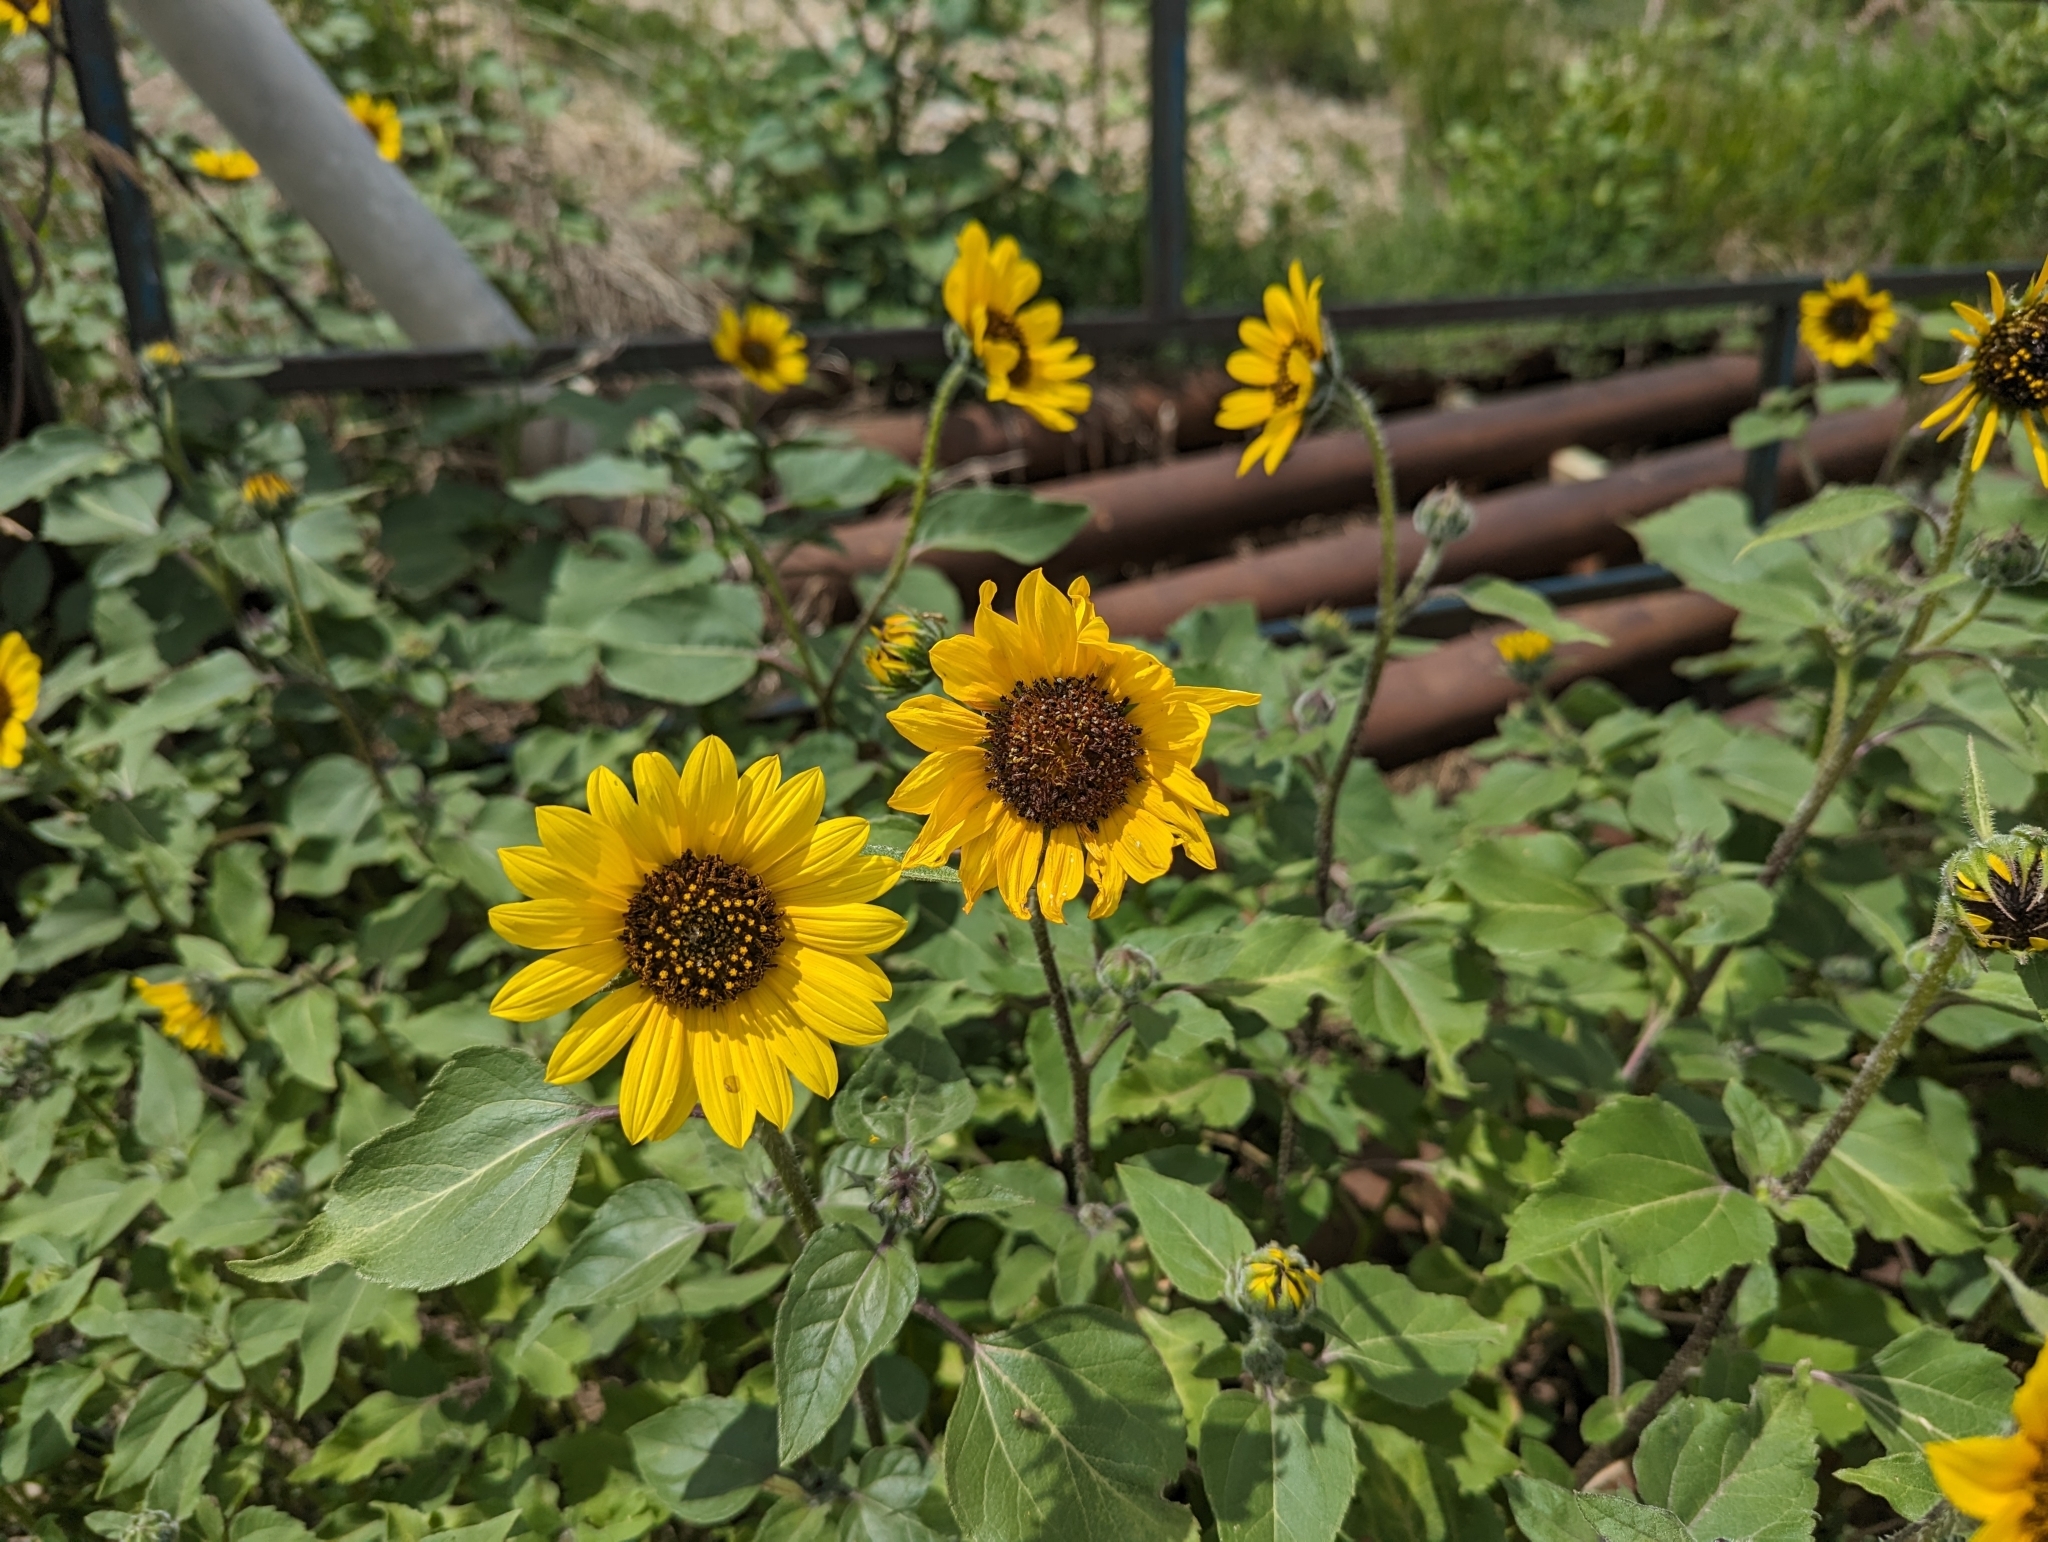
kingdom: Plantae
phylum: Tracheophyta
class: Magnoliopsida
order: Asterales
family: Asteraceae
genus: Helianthus
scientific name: Helianthus annuus
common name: Sunflower
